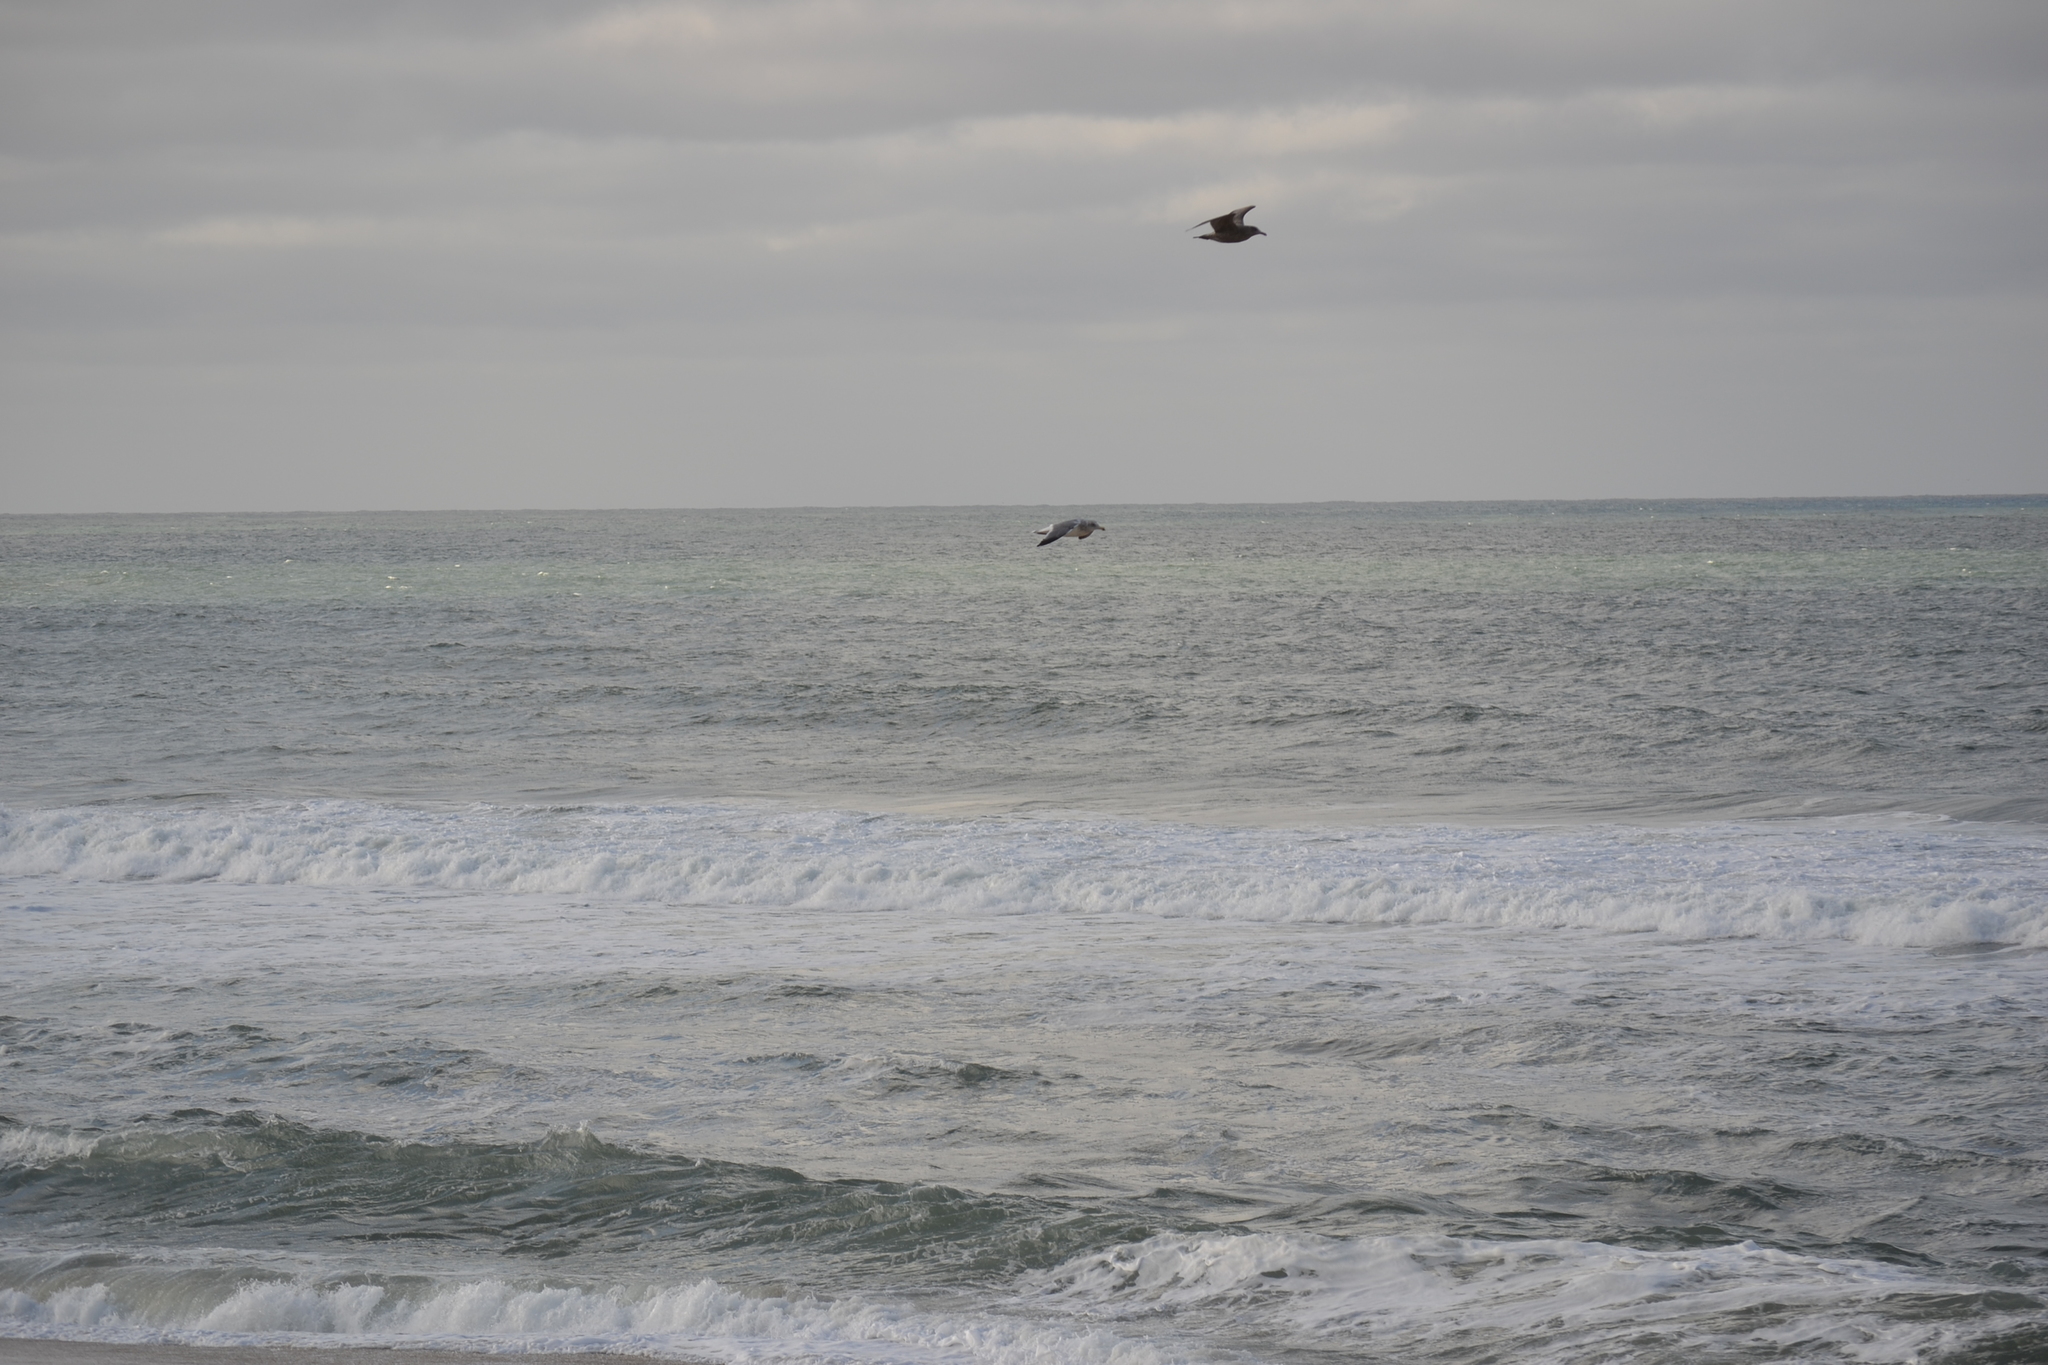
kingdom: Animalia
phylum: Chordata
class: Aves
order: Charadriiformes
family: Laridae
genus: Larus
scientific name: Larus
